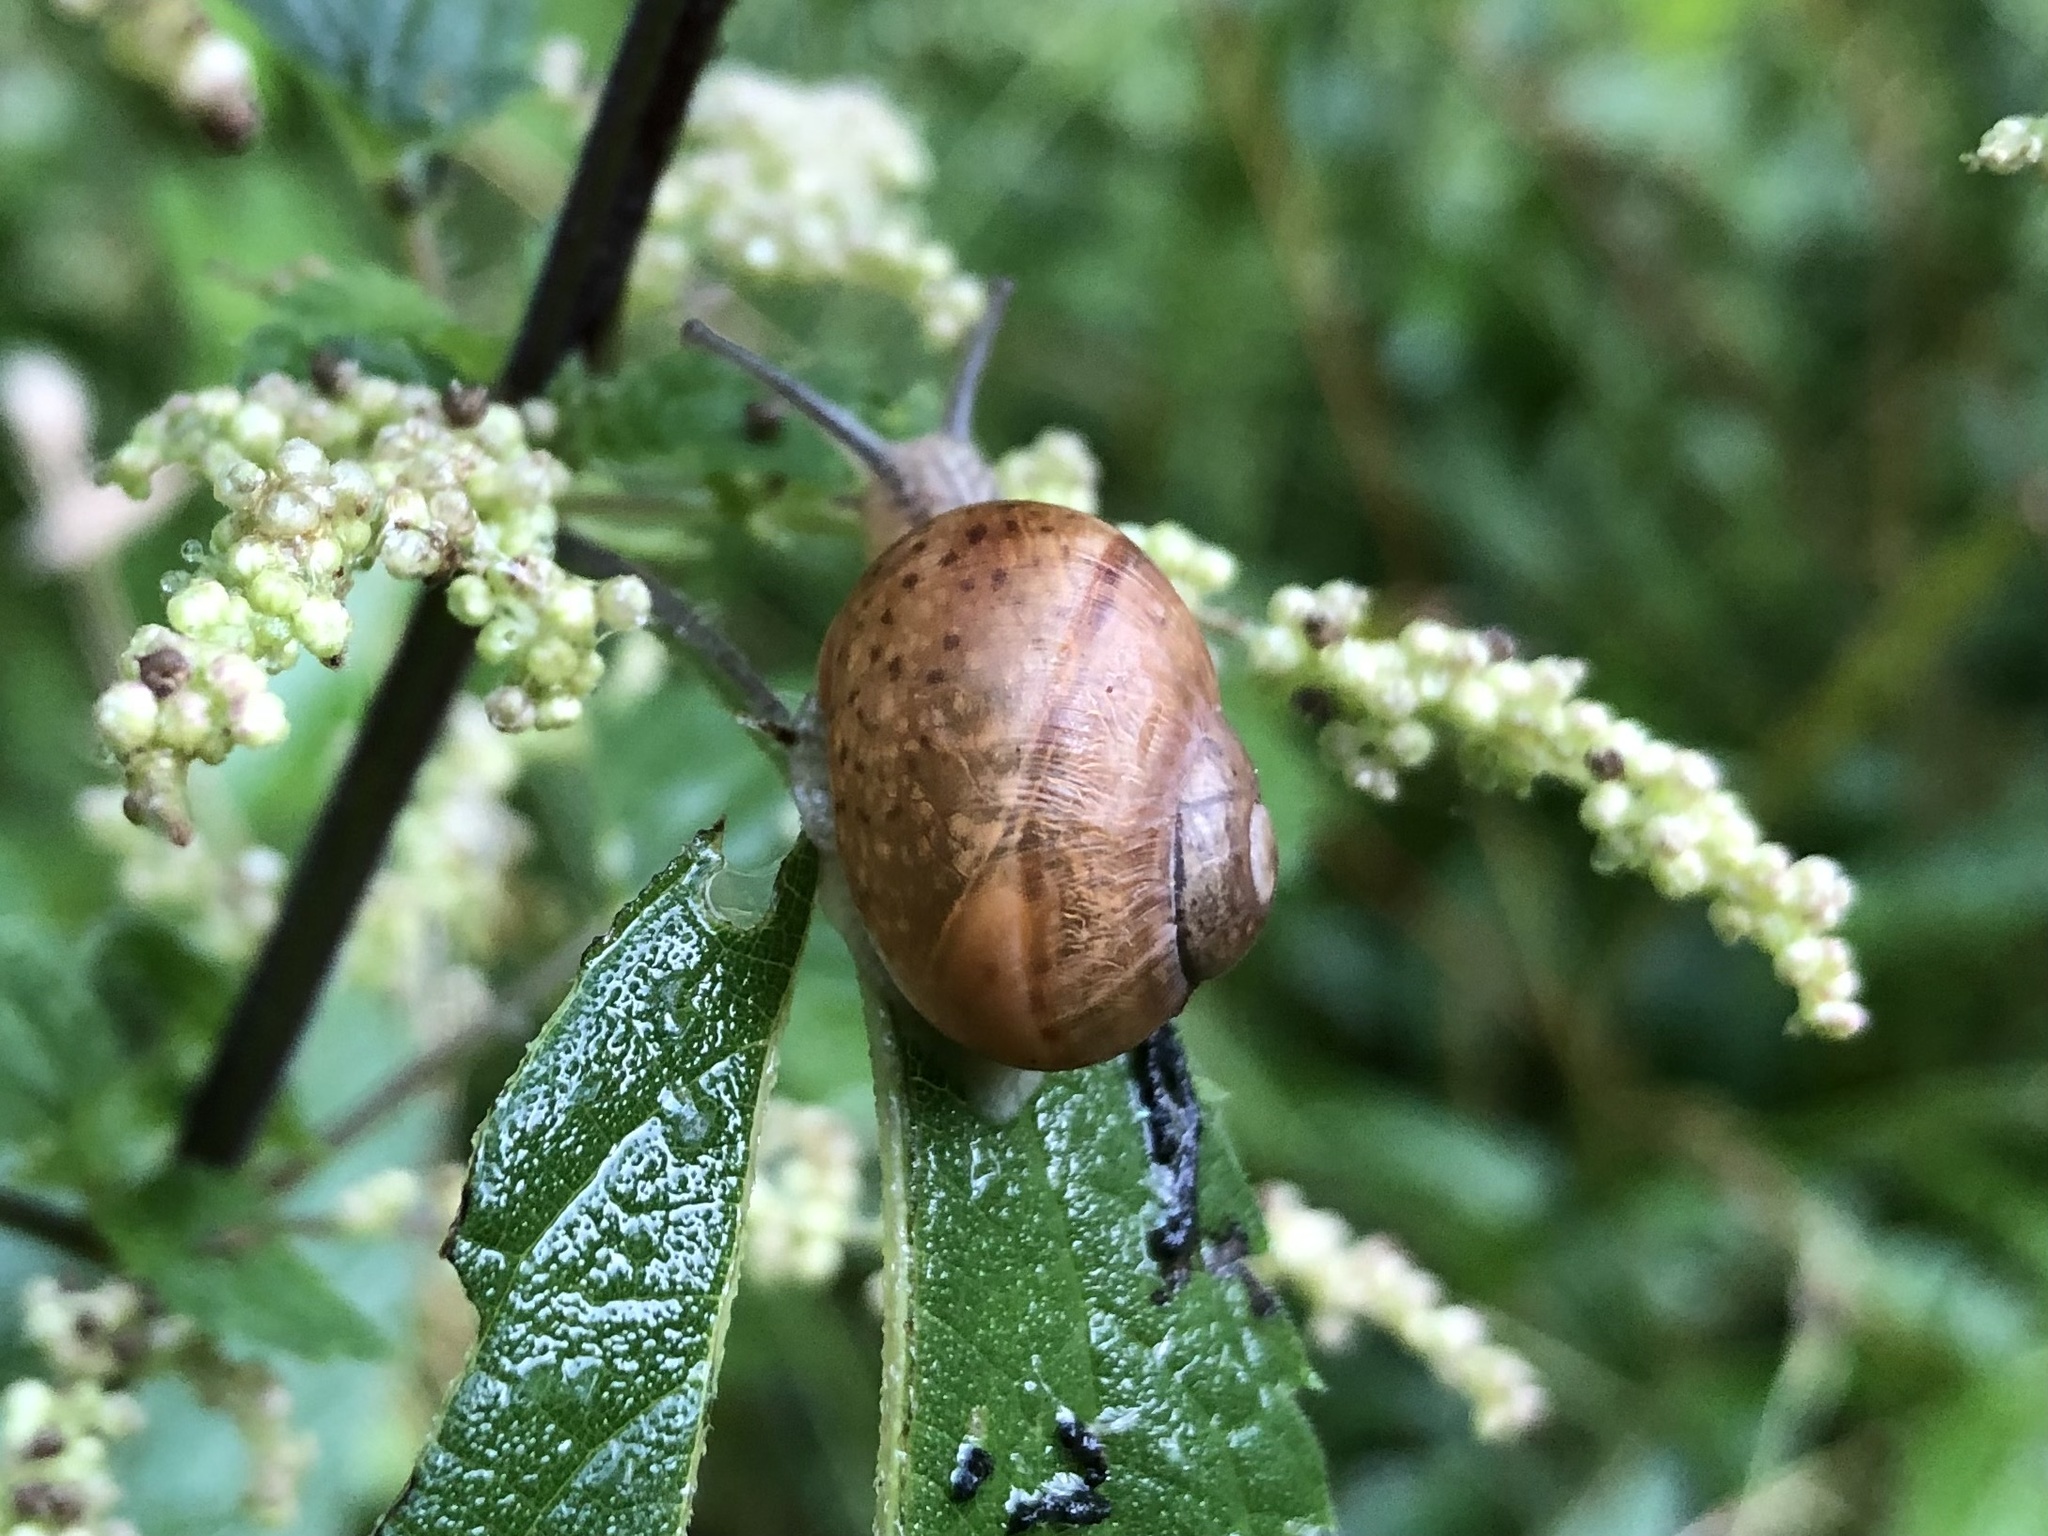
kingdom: Animalia
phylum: Mollusca
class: Gastropoda
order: Stylommatophora
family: Camaenidae
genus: Fruticicola
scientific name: Fruticicola fruticum
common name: Bush snail
